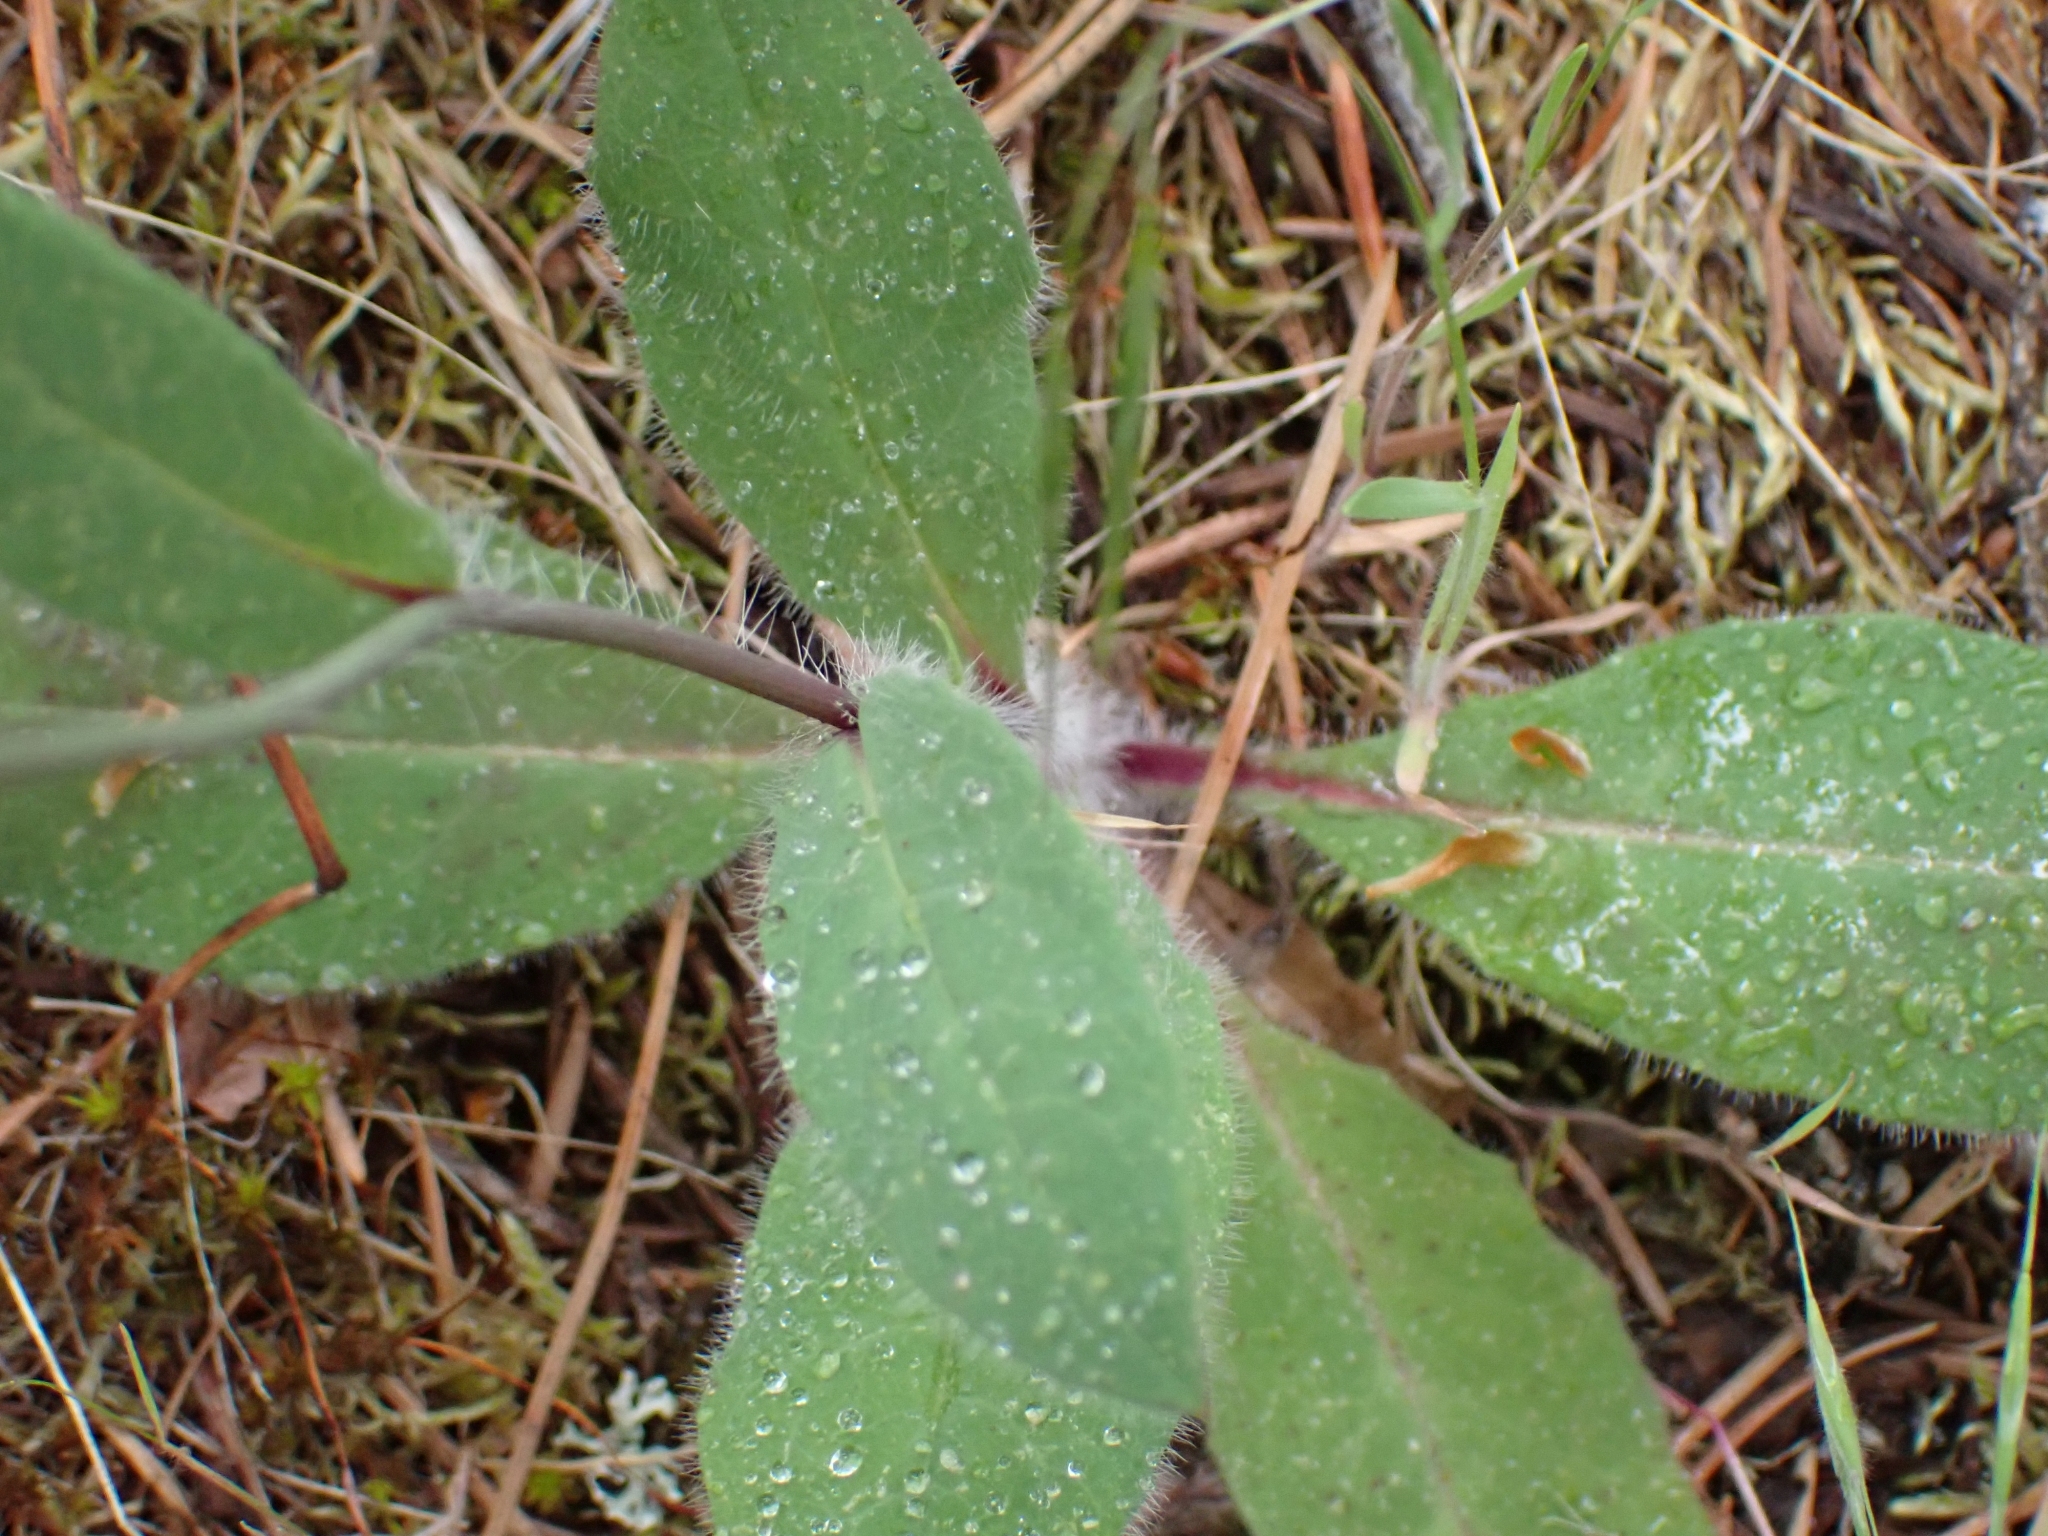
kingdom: Plantae
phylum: Tracheophyta
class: Magnoliopsida
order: Asterales
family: Asteraceae
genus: Hieracium
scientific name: Hieracium albiflorum
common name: White hawkweed
